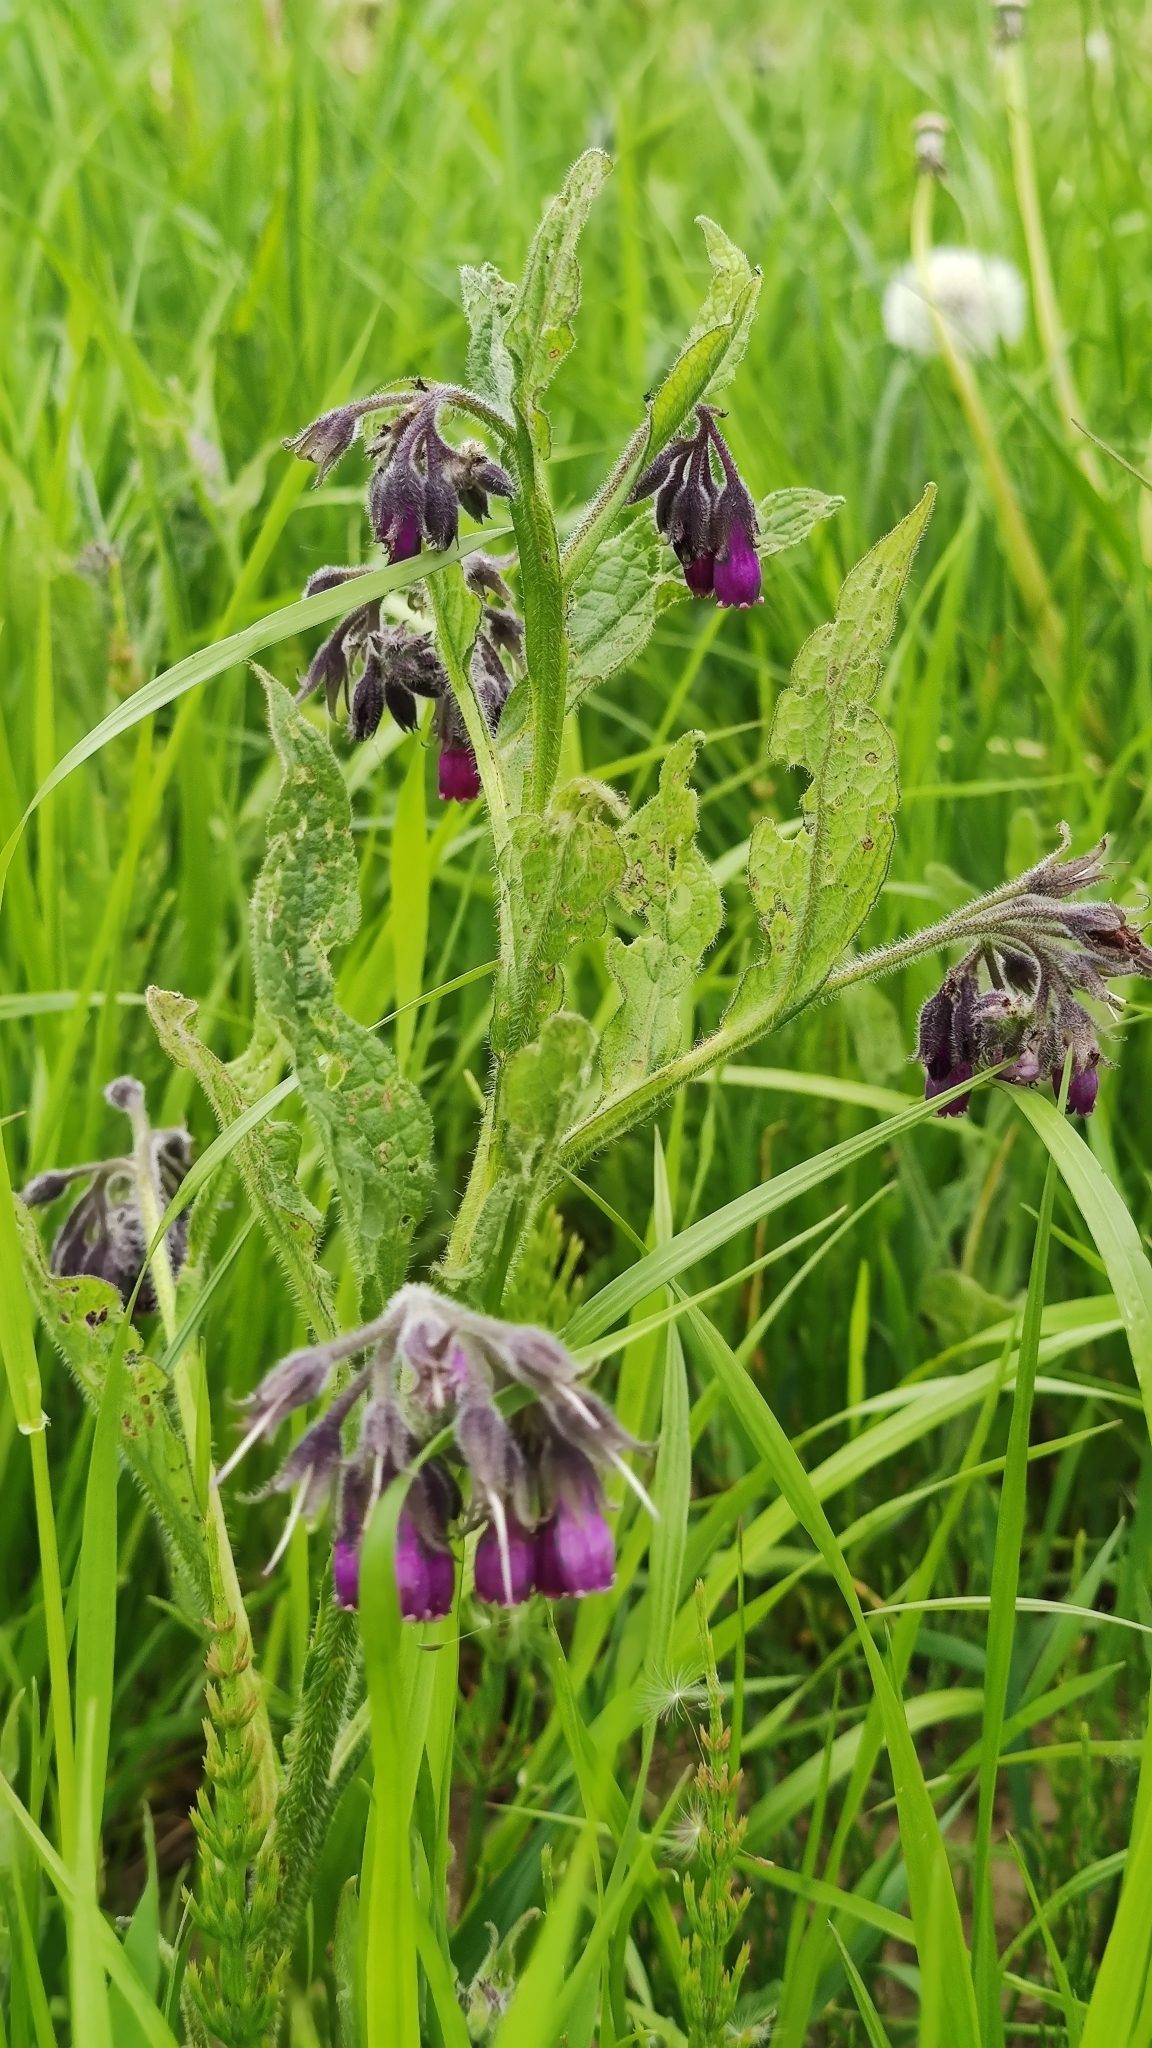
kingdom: Plantae
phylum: Tracheophyta
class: Magnoliopsida
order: Boraginales
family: Boraginaceae
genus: Symphytum
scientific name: Symphytum officinale
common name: Common comfrey
